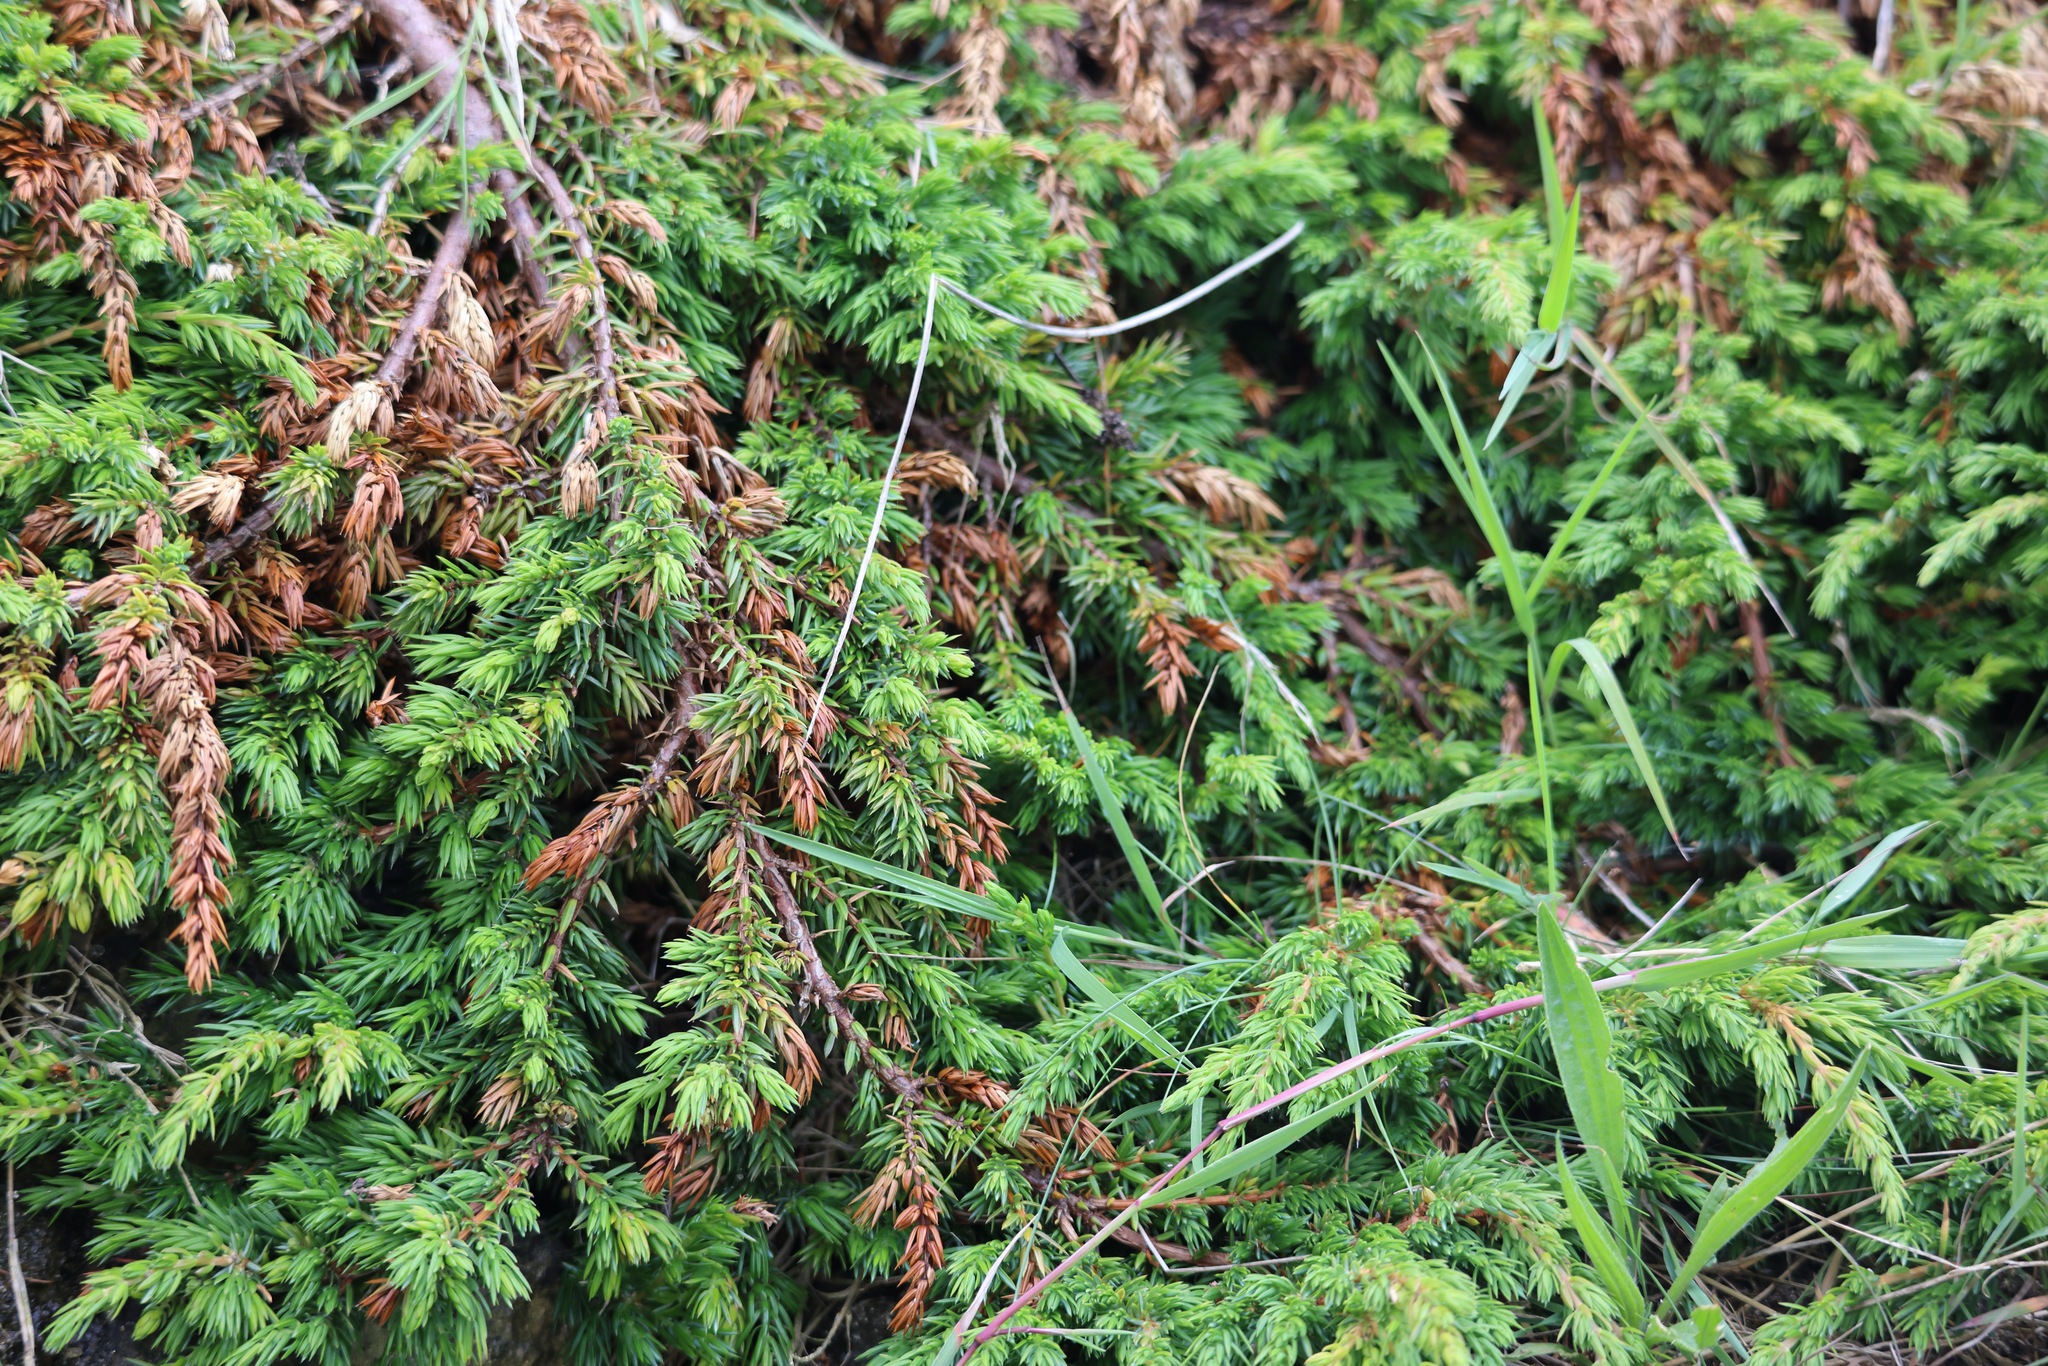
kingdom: Plantae
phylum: Tracheophyta
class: Pinopsida
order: Pinales
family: Cupressaceae
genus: Juniperus
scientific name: Juniperus communis
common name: Common juniper
